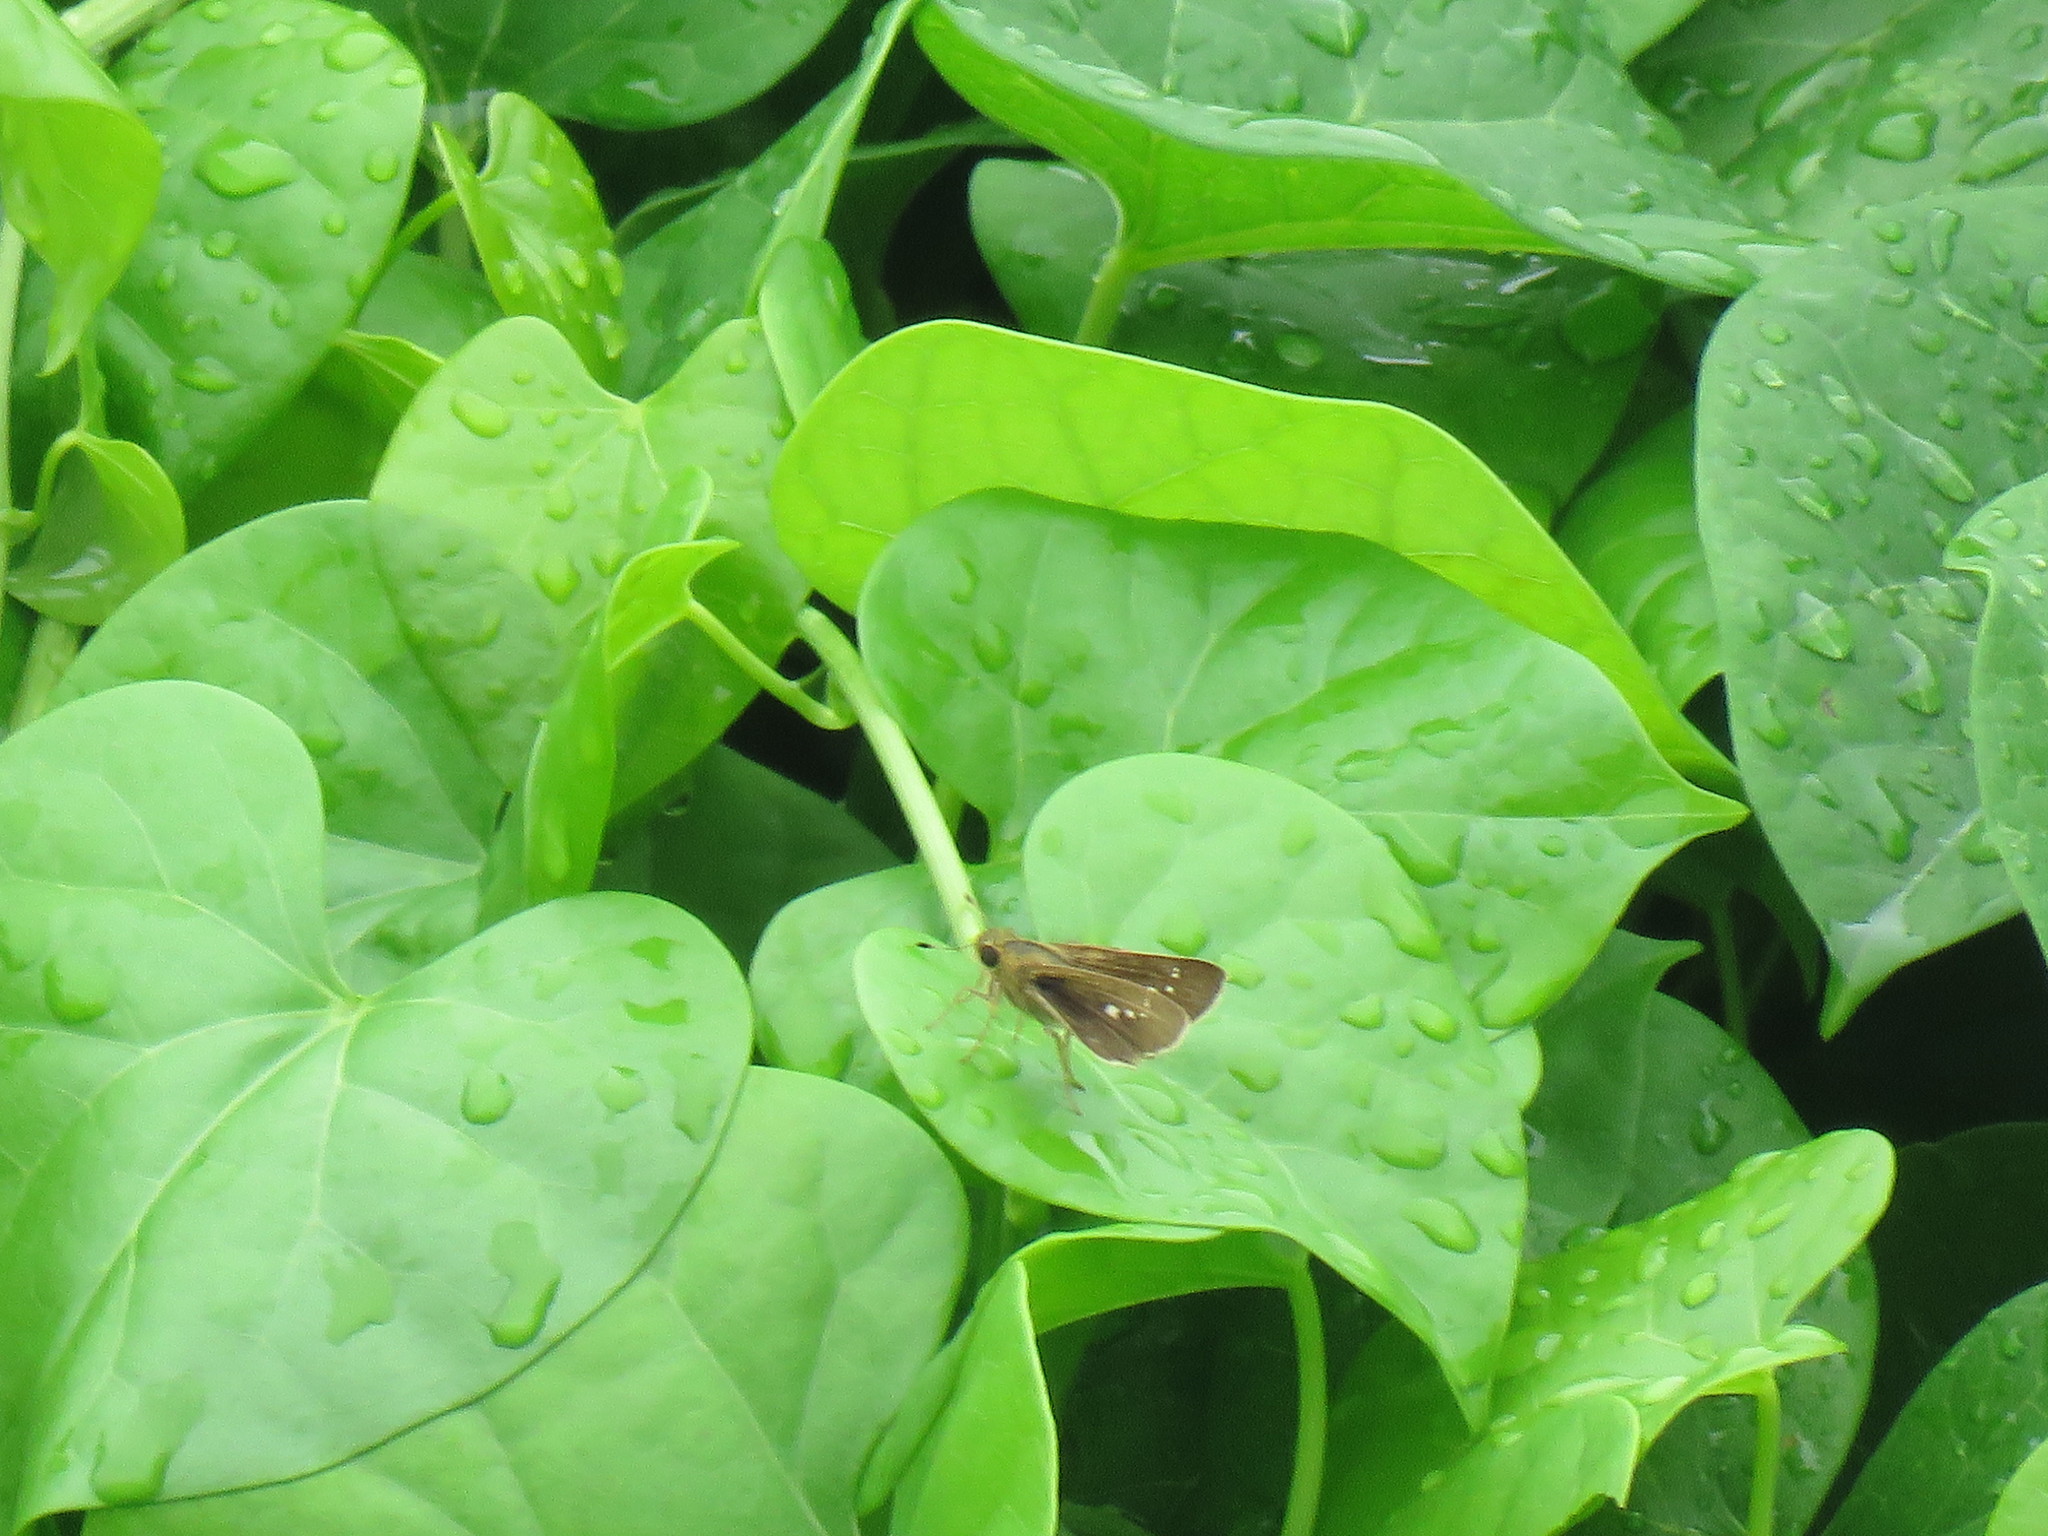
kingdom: Animalia
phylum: Arthropoda
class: Insecta
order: Lepidoptera
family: Hesperiidae
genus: Parnara
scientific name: Parnara naso
